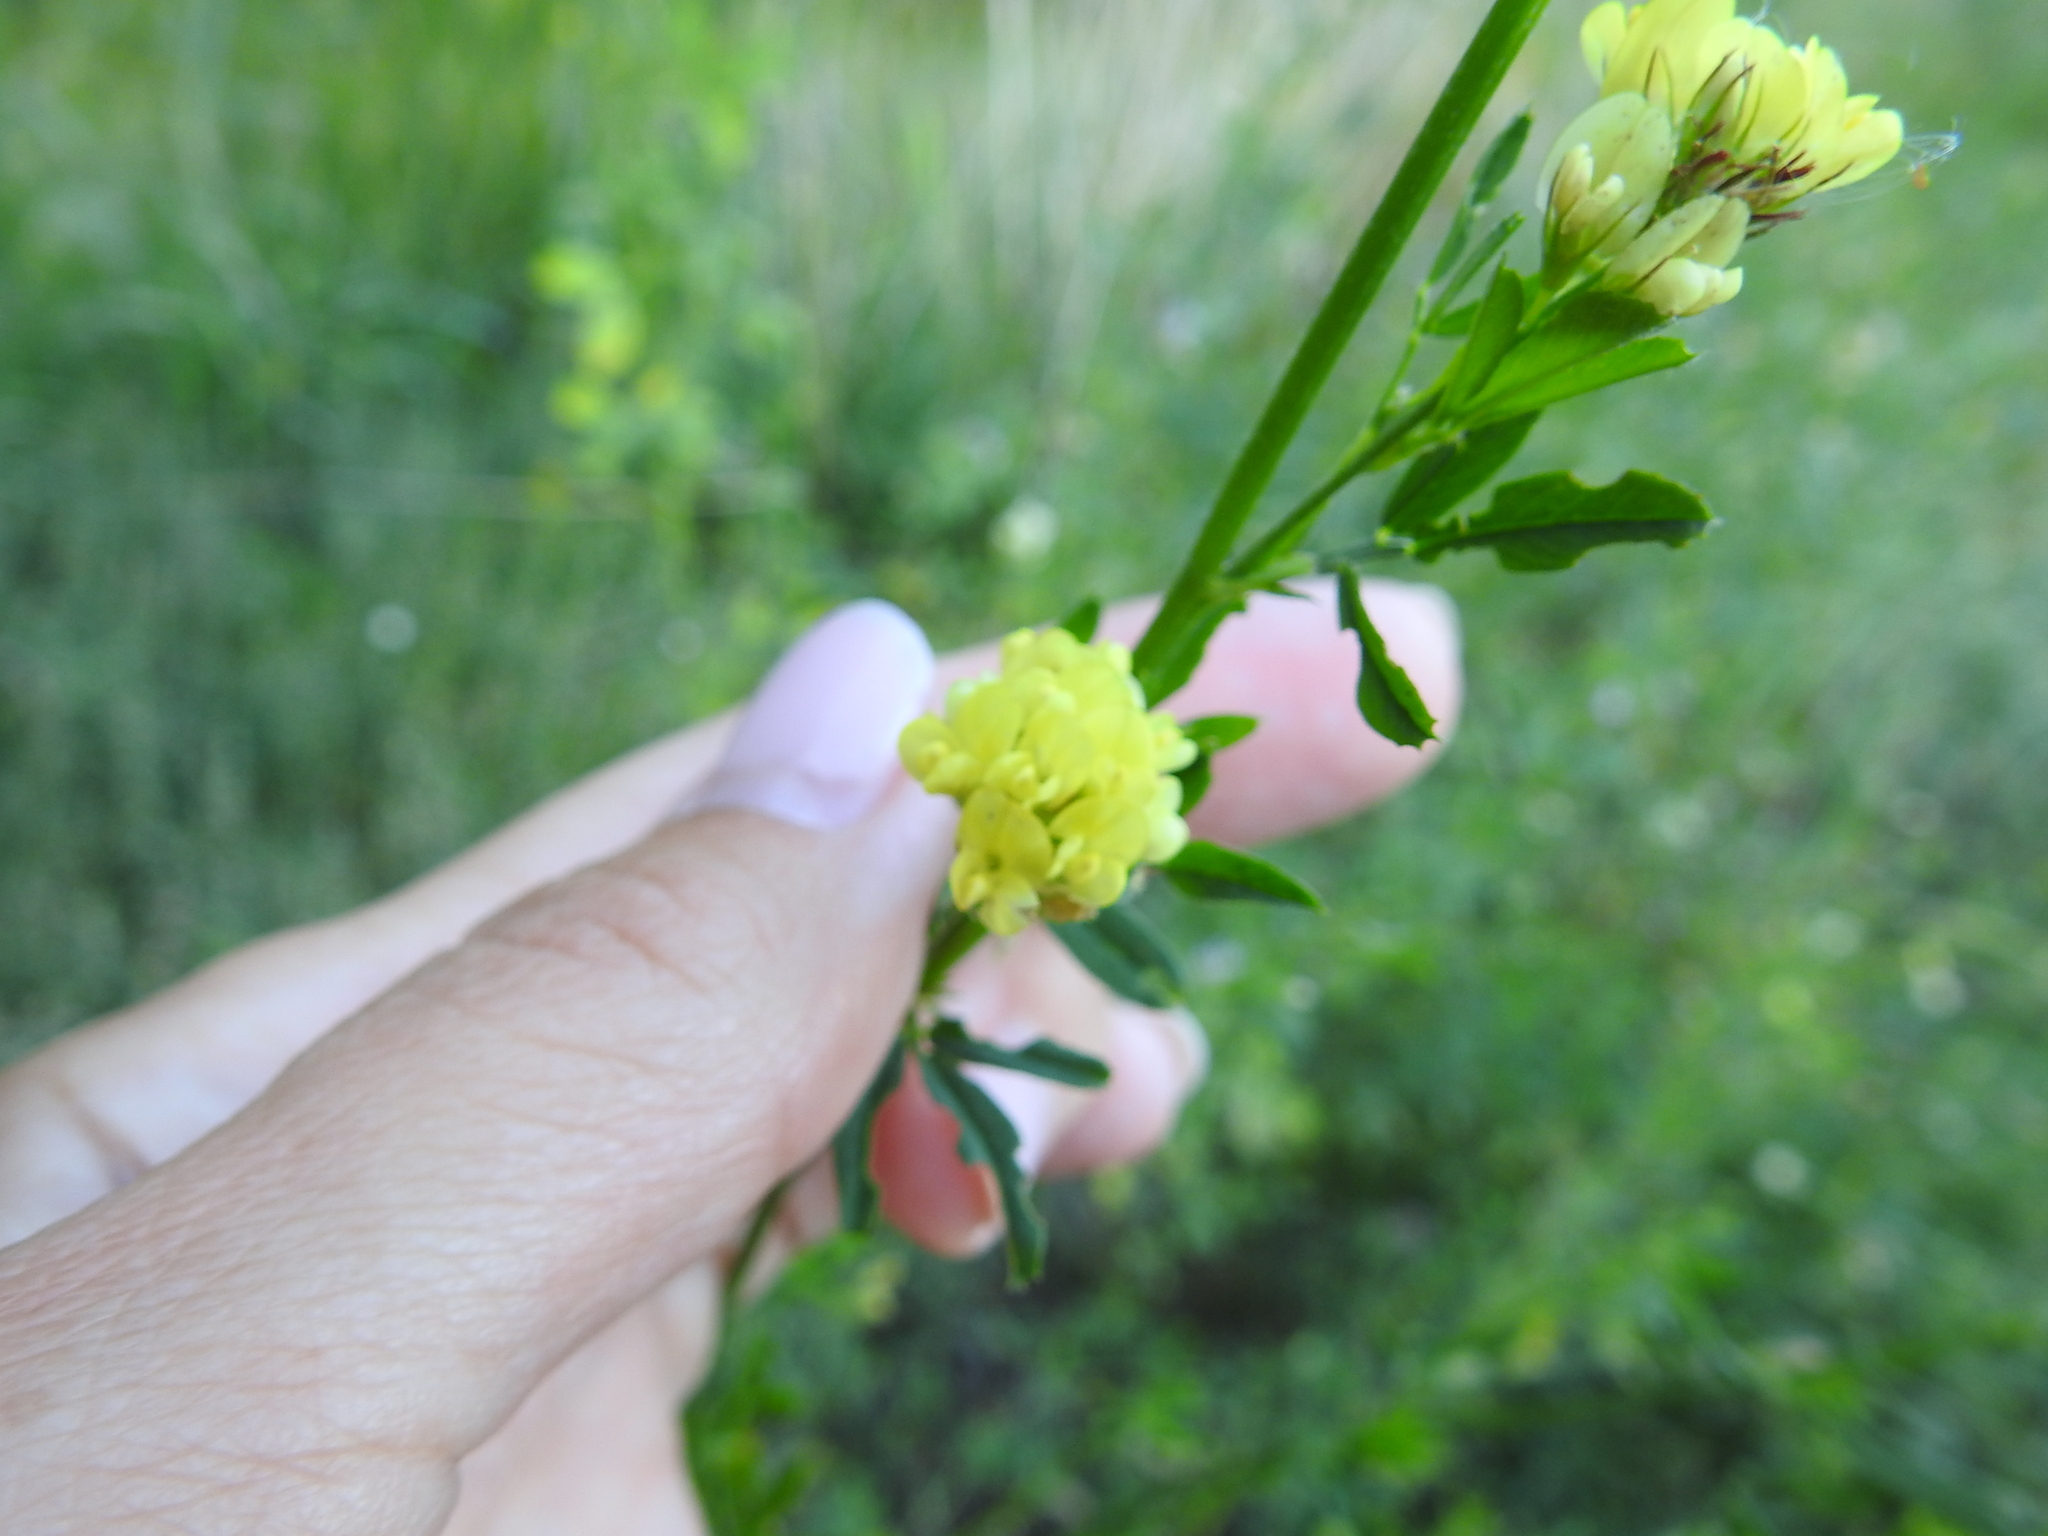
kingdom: Plantae
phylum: Tracheophyta
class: Magnoliopsida
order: Fabales
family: Fabaceae
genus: Medicago
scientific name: Medicago falcata
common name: Sickle medick
